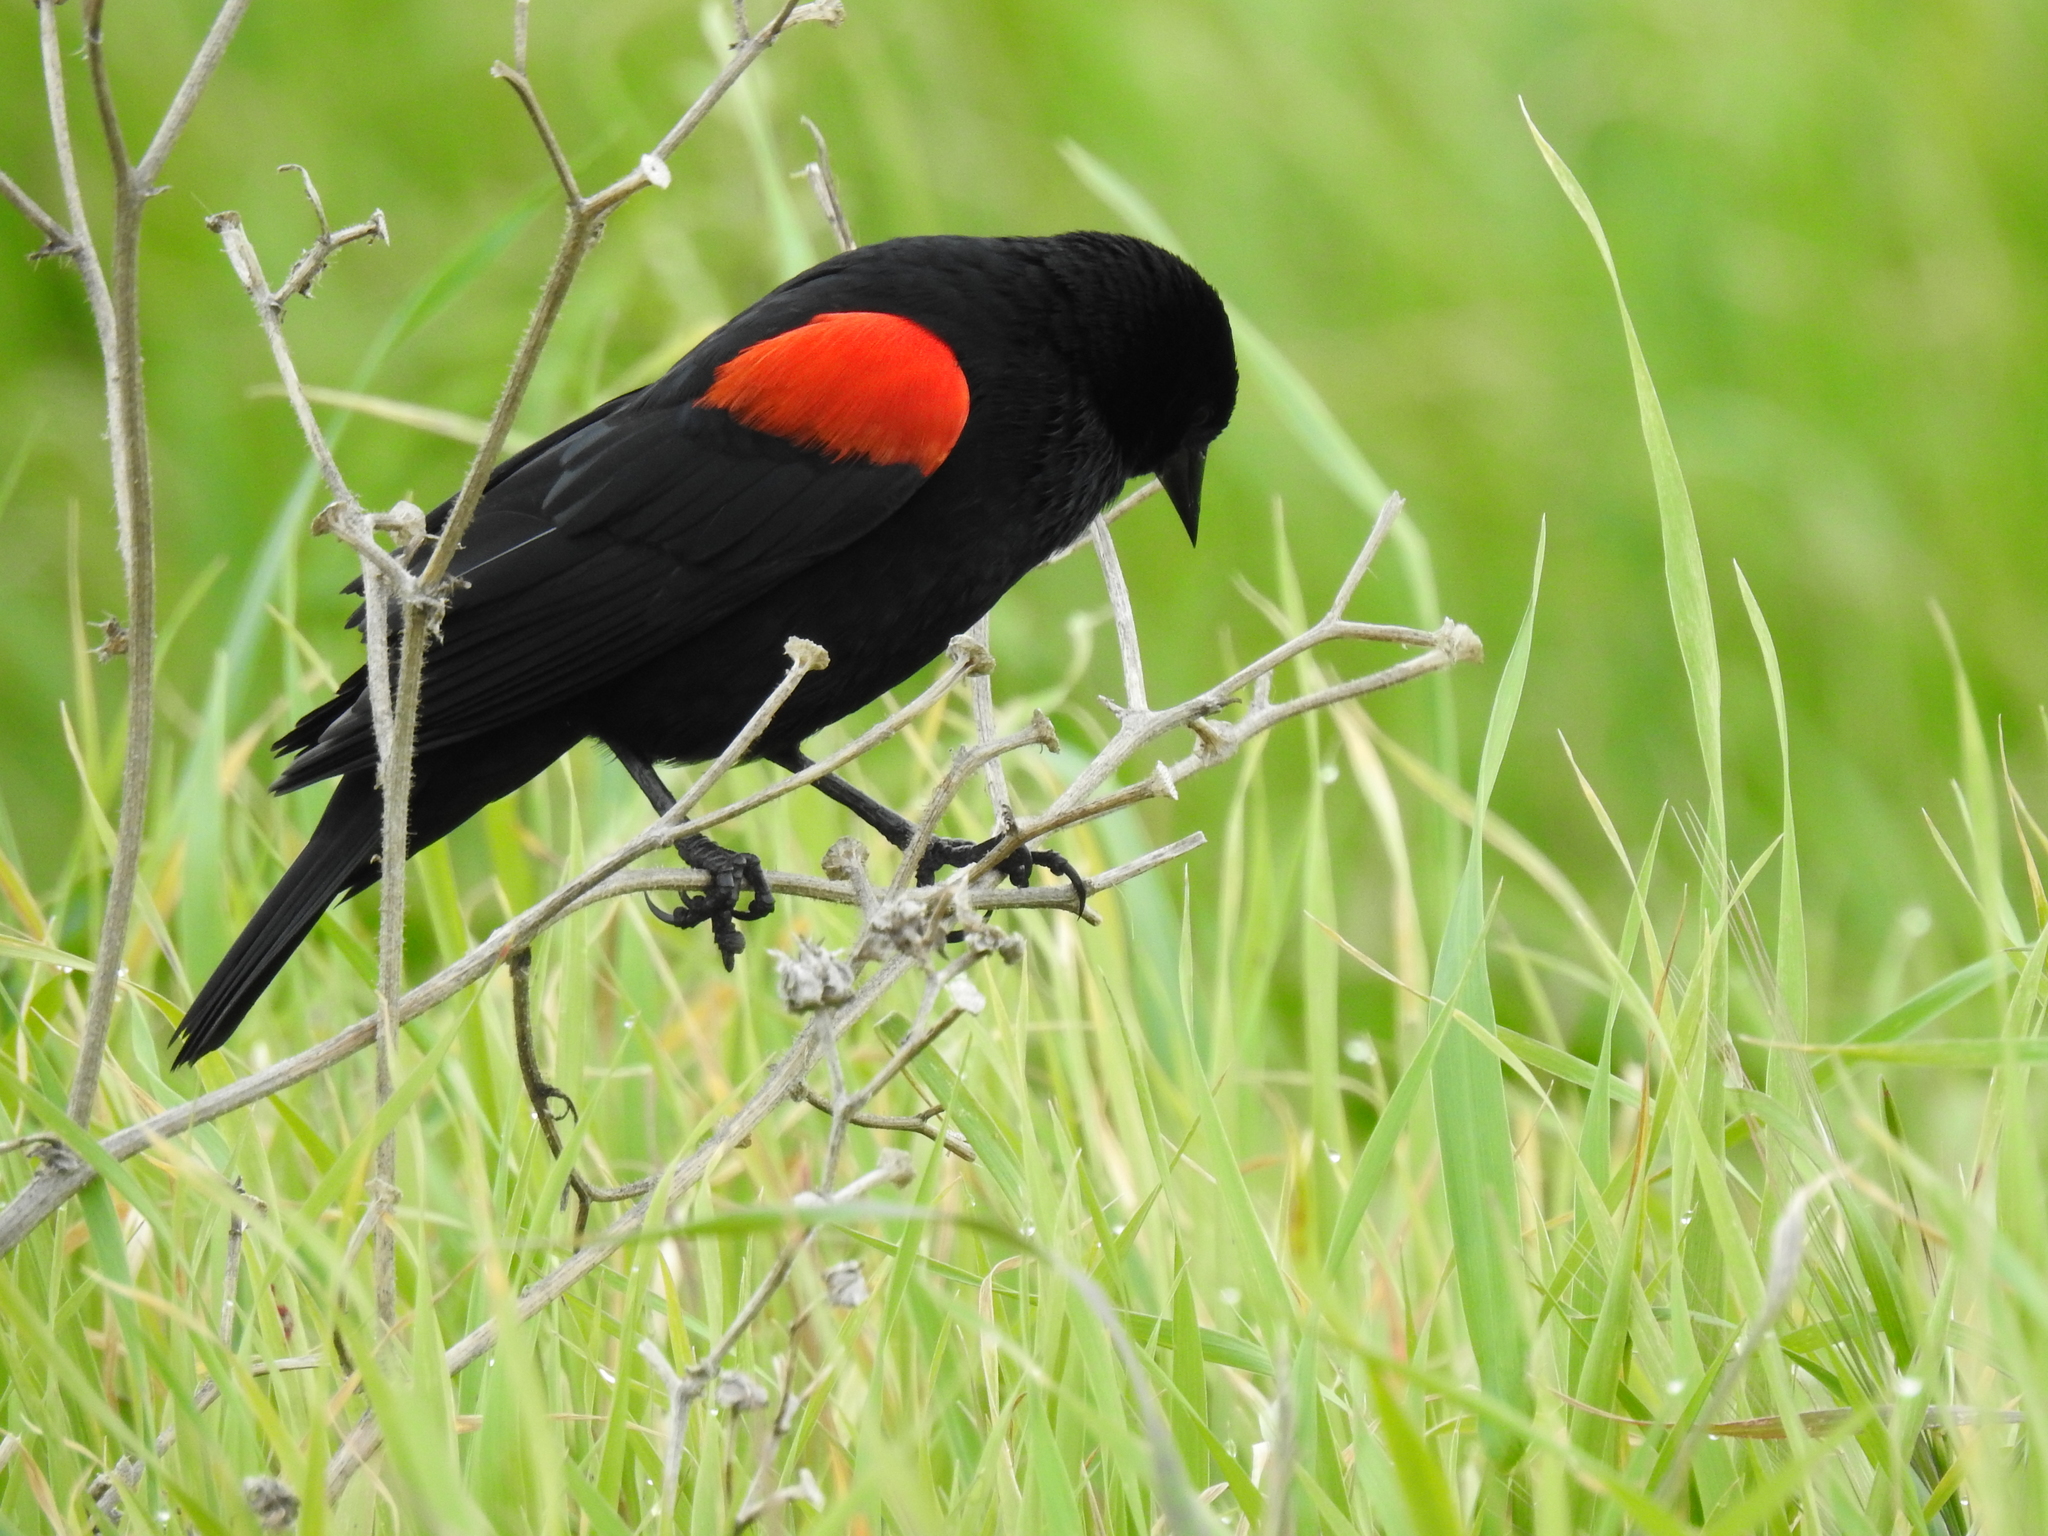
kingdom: Animalia
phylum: Chordata
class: Aves
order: Passeriformes
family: Icteridae
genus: Agelaius
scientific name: Agelaius phoeniceus
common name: Red-winged blackbird
